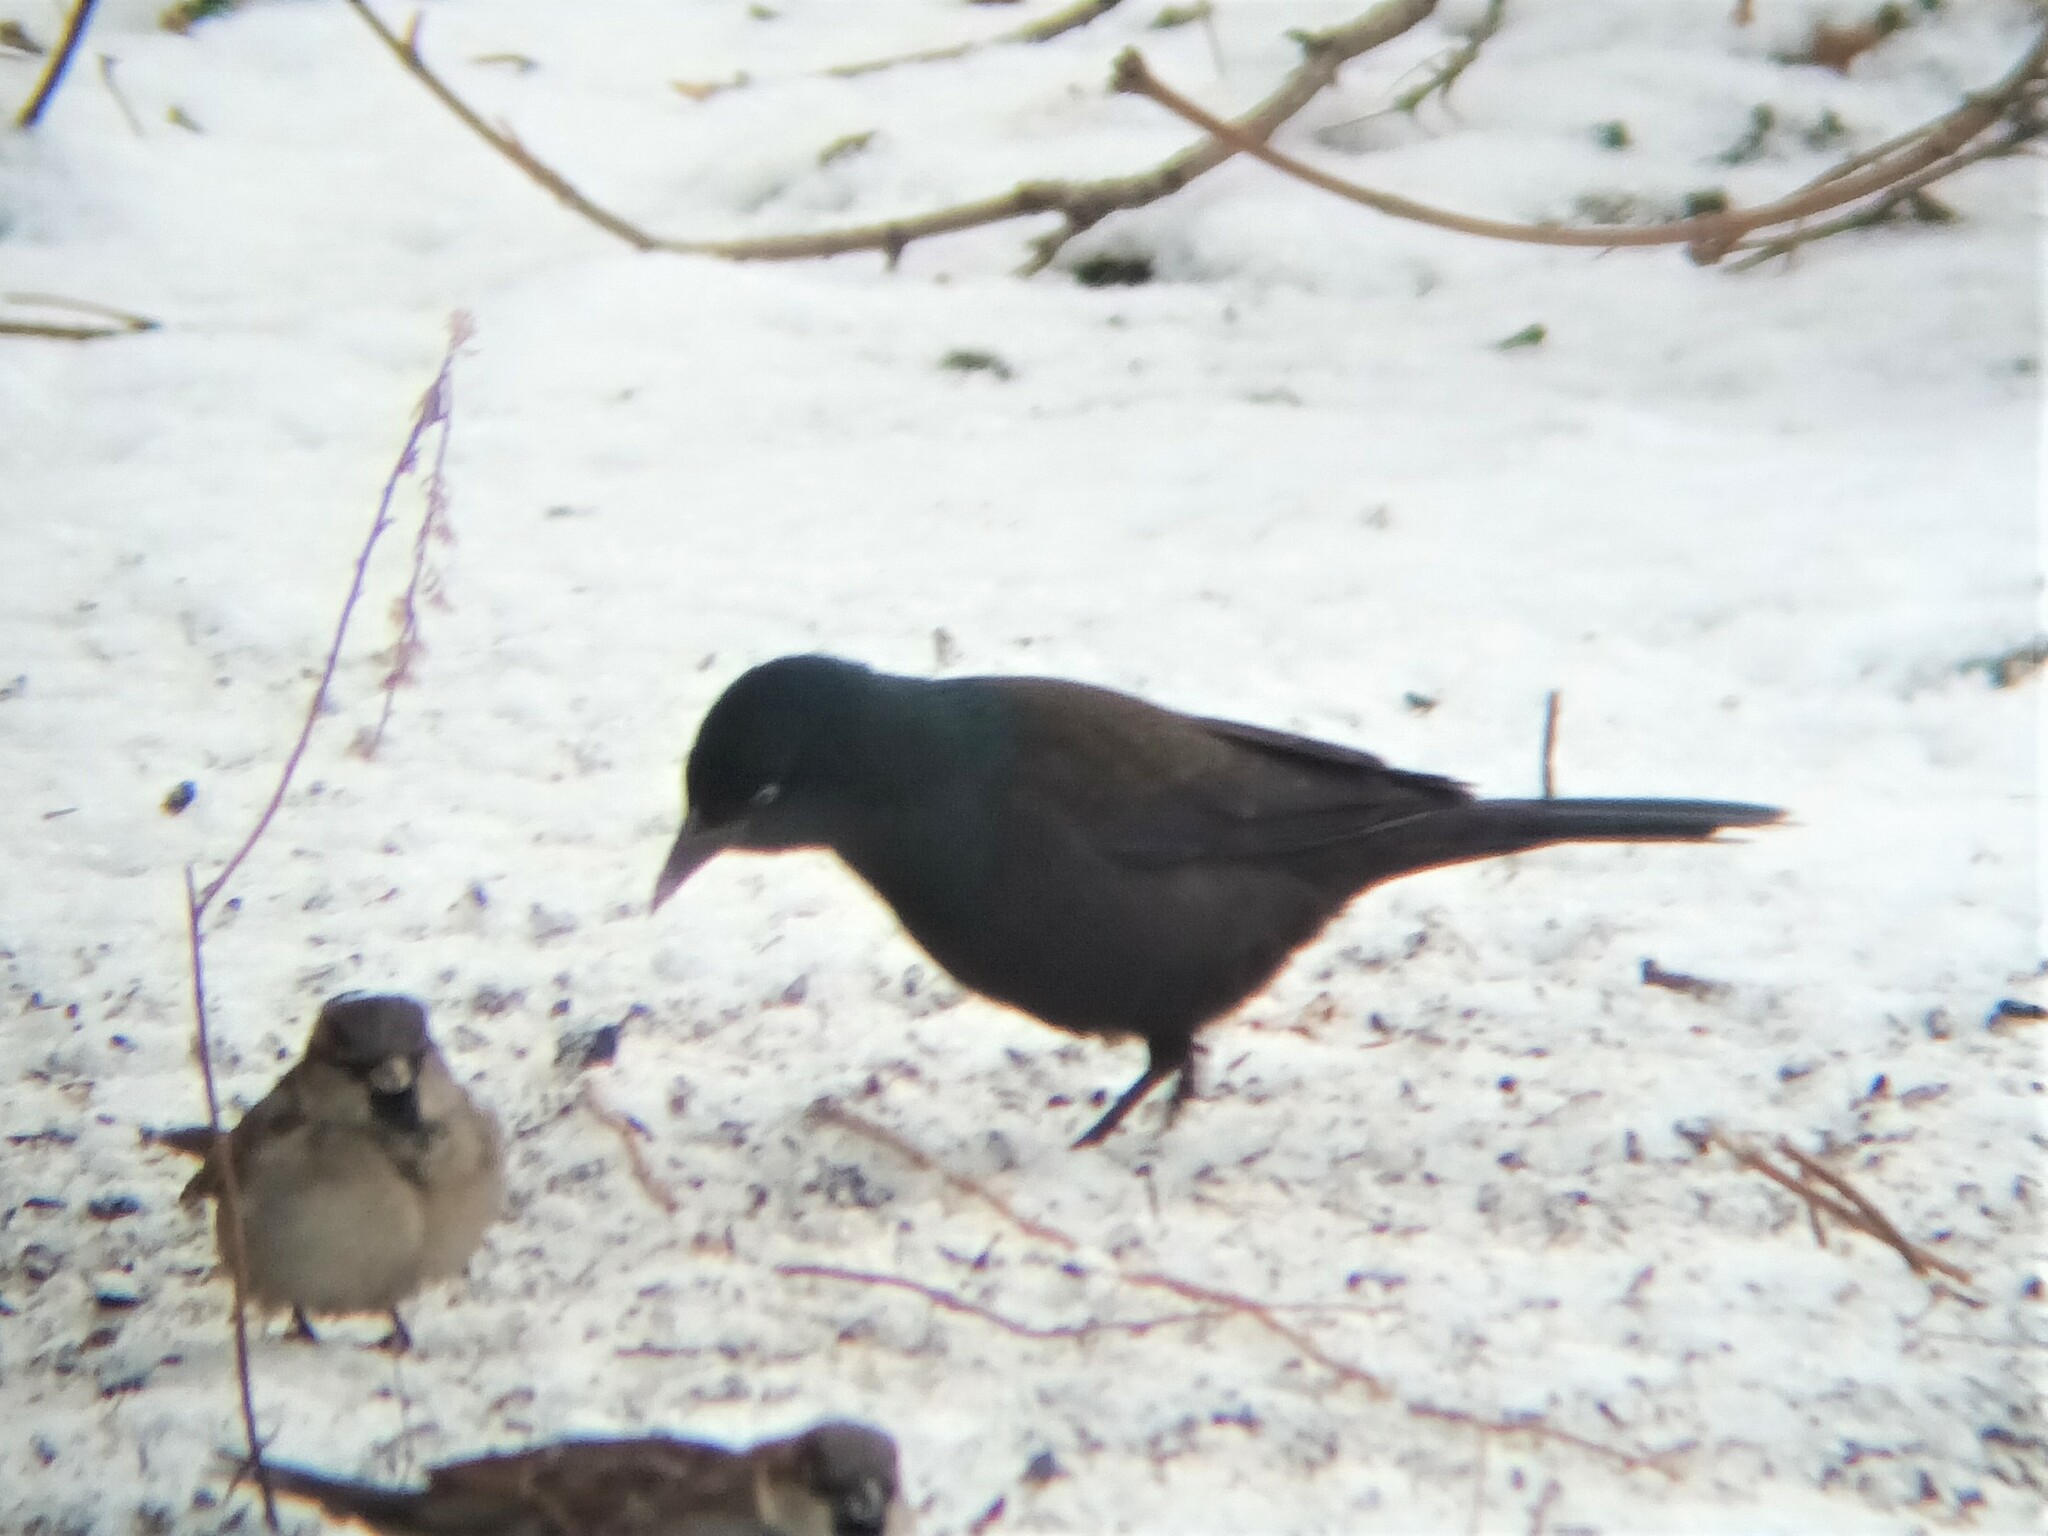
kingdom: Animalia
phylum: Chordata
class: Aves
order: Passeriformes
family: Icteridae
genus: Quiscalus
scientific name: Quiscalus quiscula
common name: Common grackle
